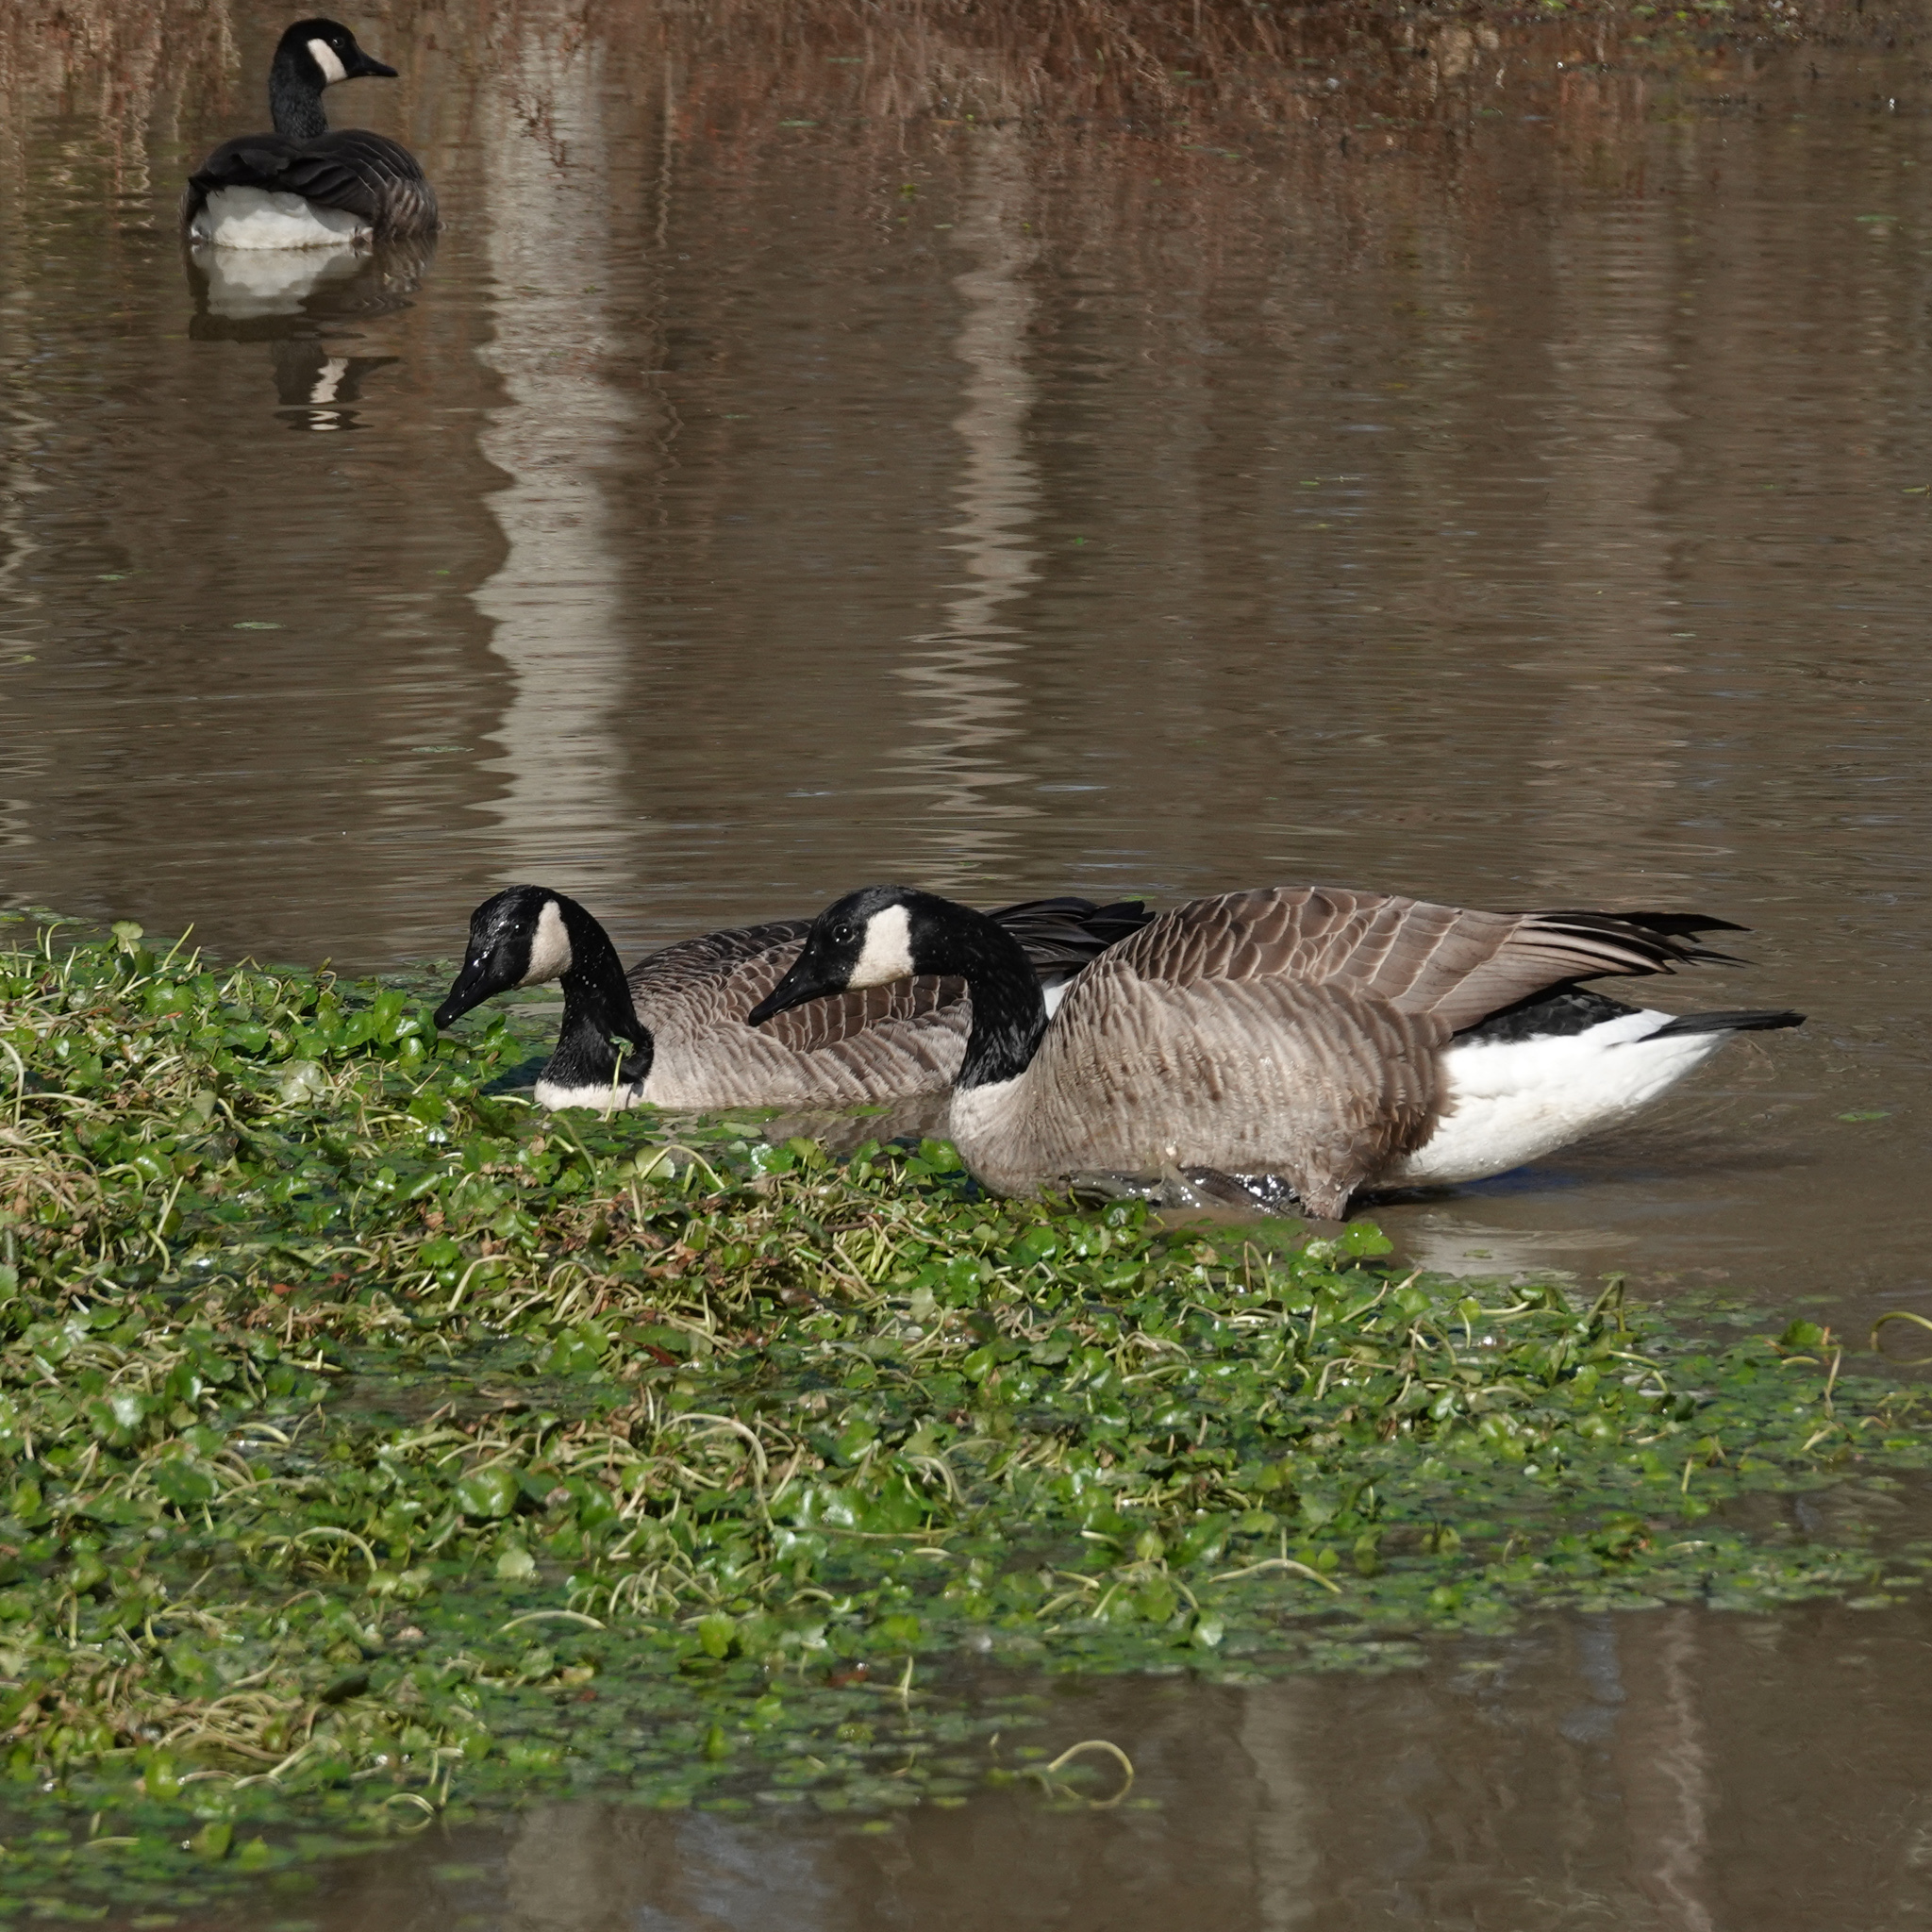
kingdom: Animalia
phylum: Chordata
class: Aves
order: Anseriformes
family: Anatidae
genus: Branta
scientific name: Branta canadensis
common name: Canada goose
